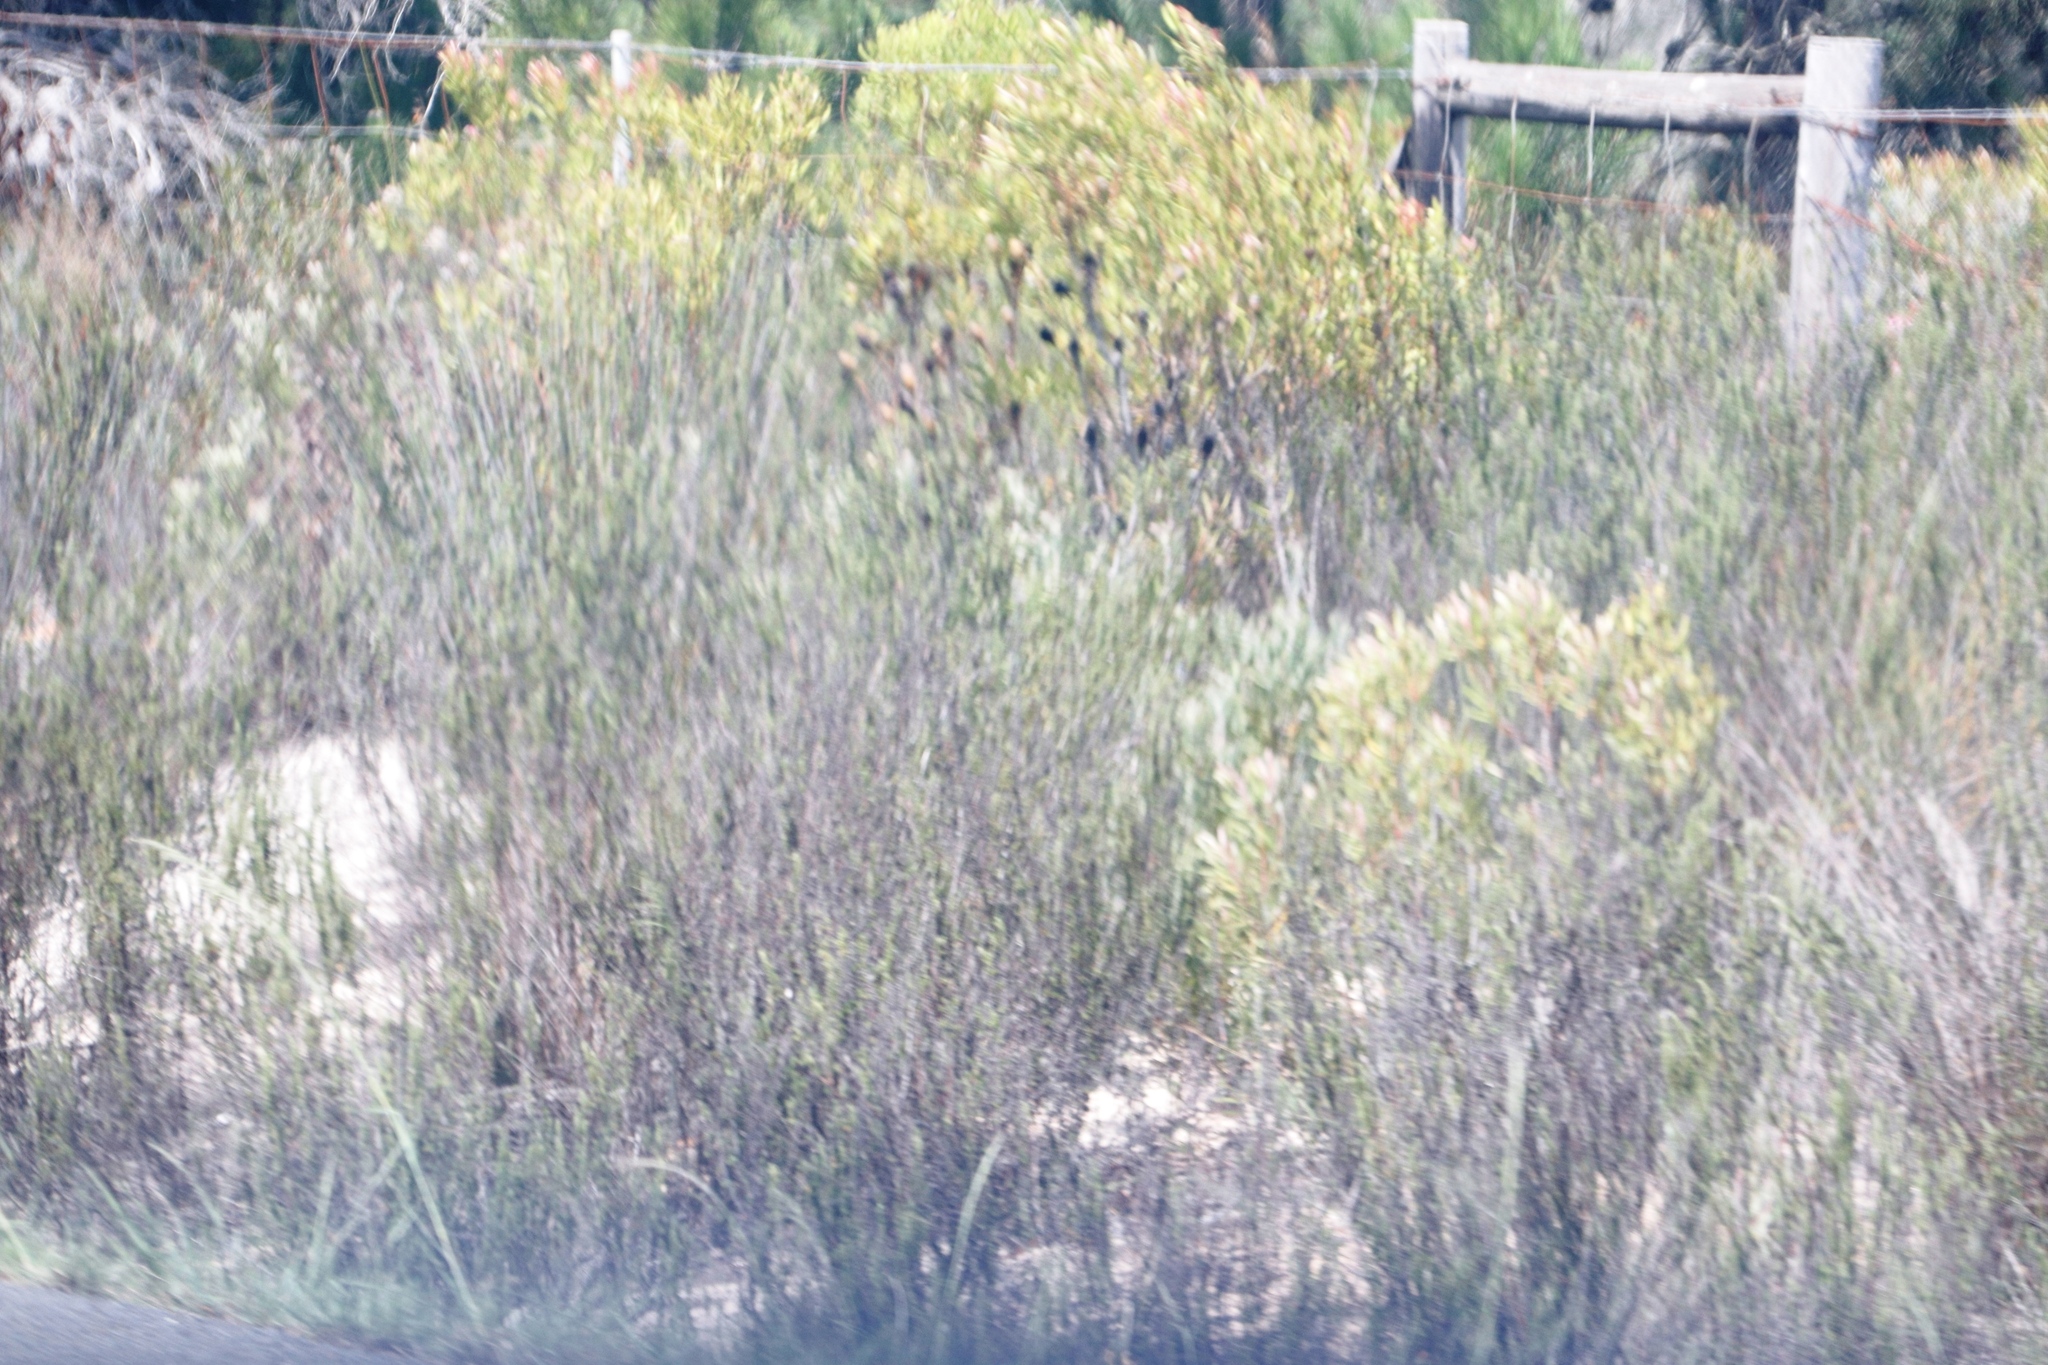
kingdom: Plantae
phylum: Tracheophyta
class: Magnoliopsida
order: Proteales
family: Proteaceae
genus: Leucospermum
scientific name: Leucospermum praecox
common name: Mossel bay pincushion
